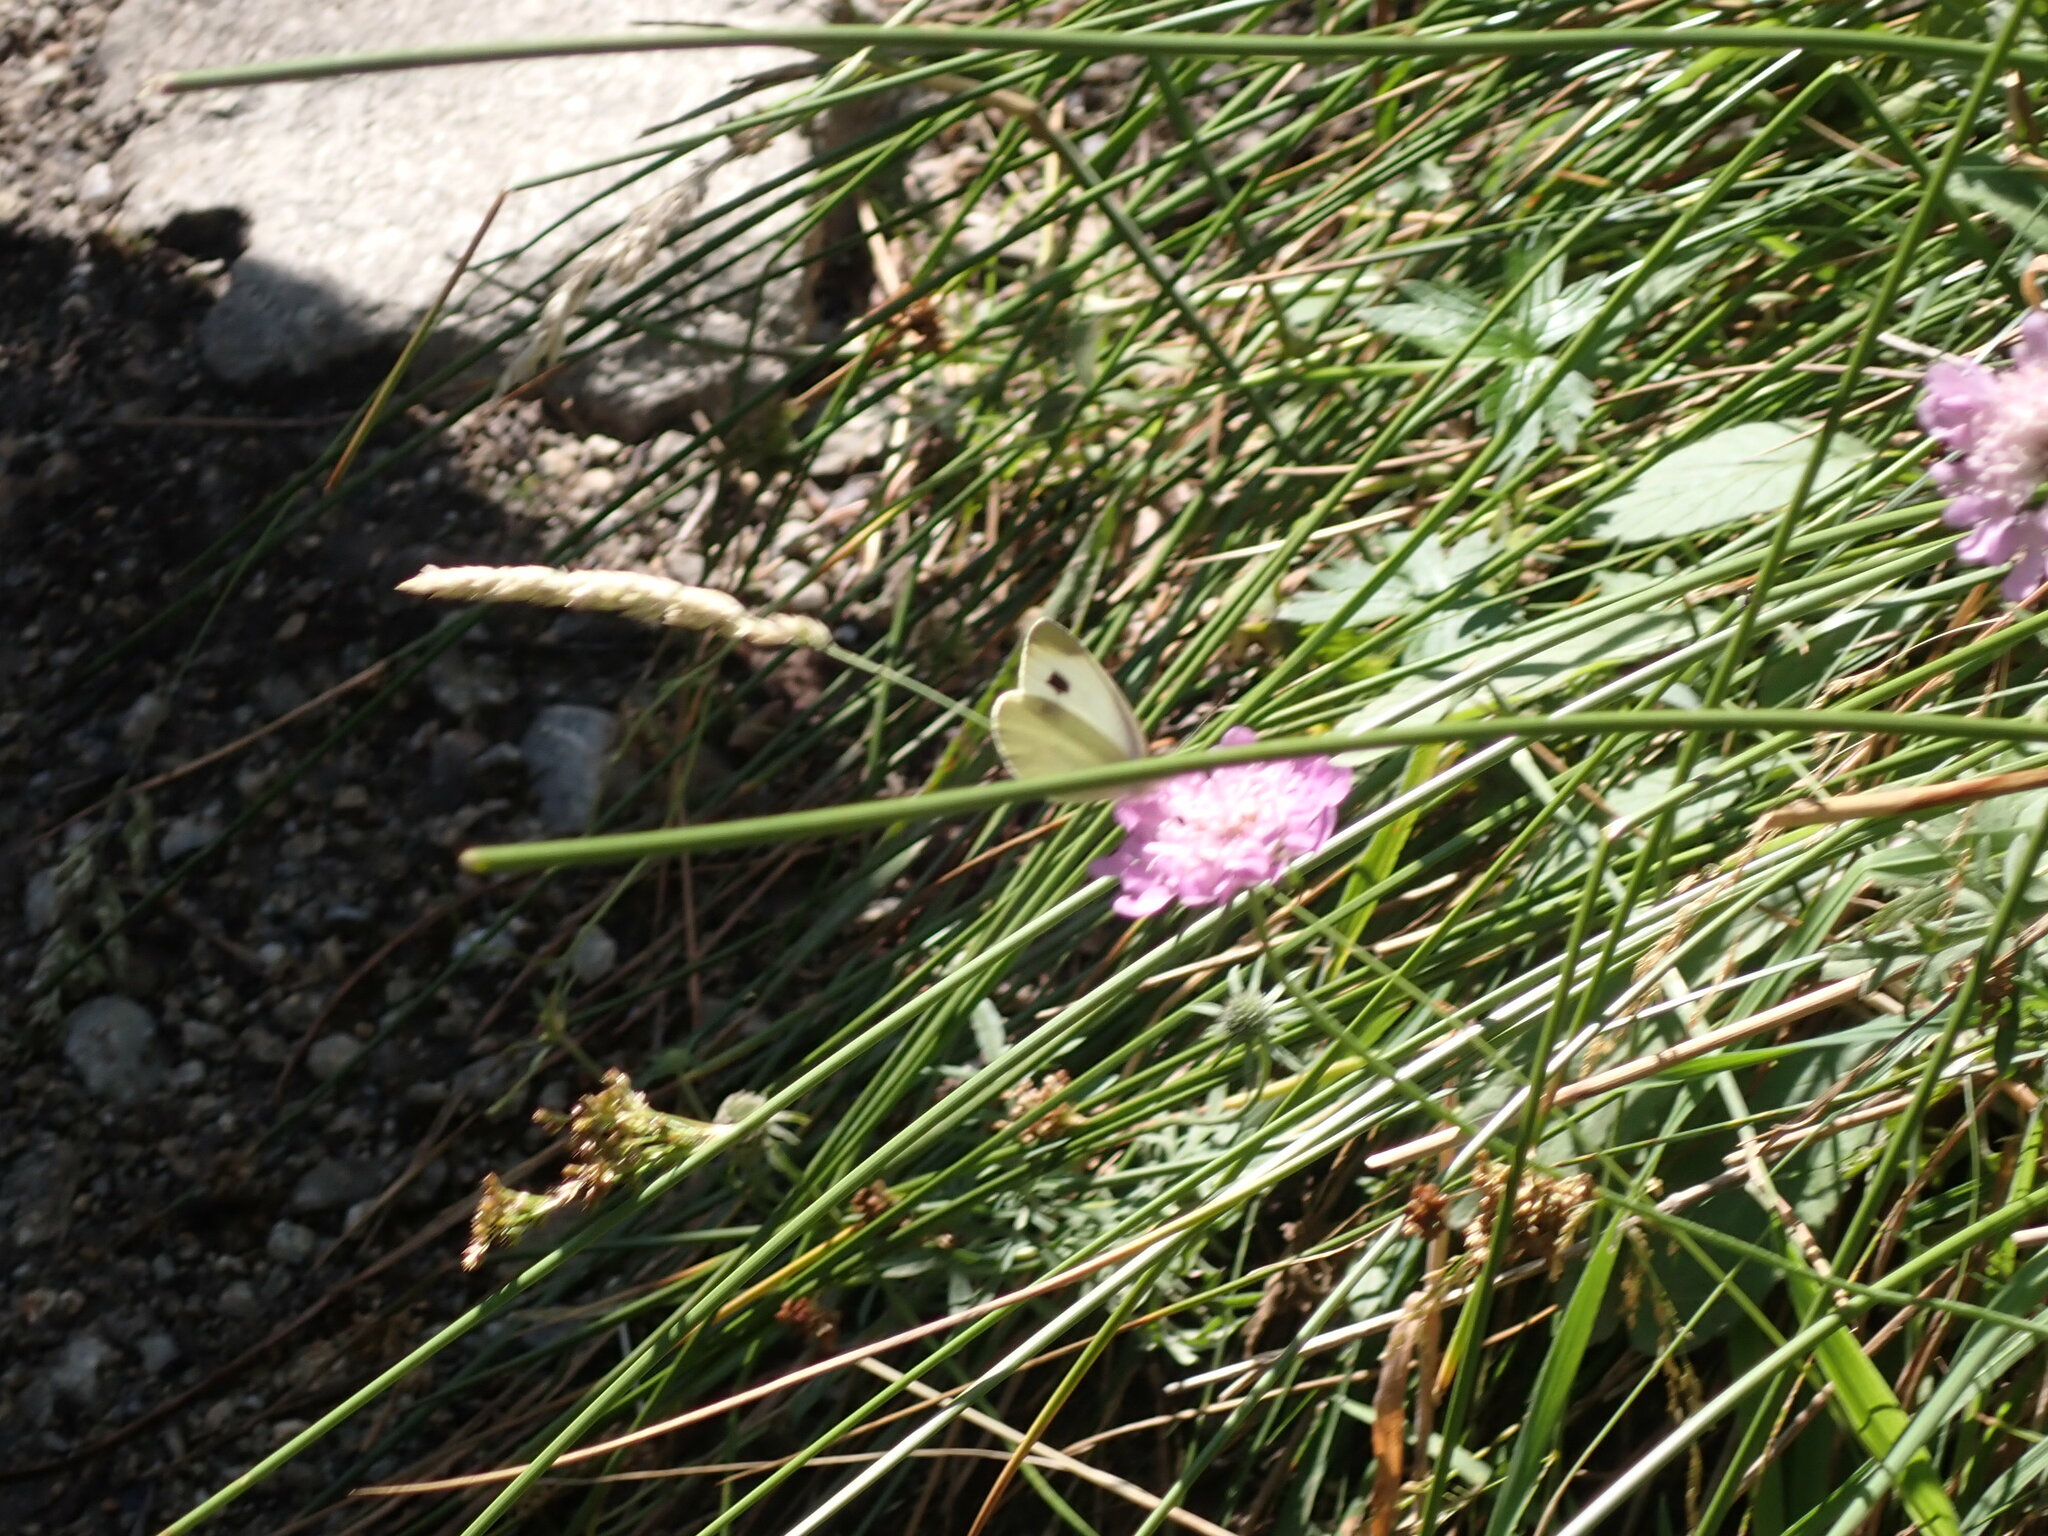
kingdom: Animalia
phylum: Arthropoda
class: Insecta
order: Lepidoptera
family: Pieridae
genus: Pieris
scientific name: Pieris mannii
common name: Southern small white
